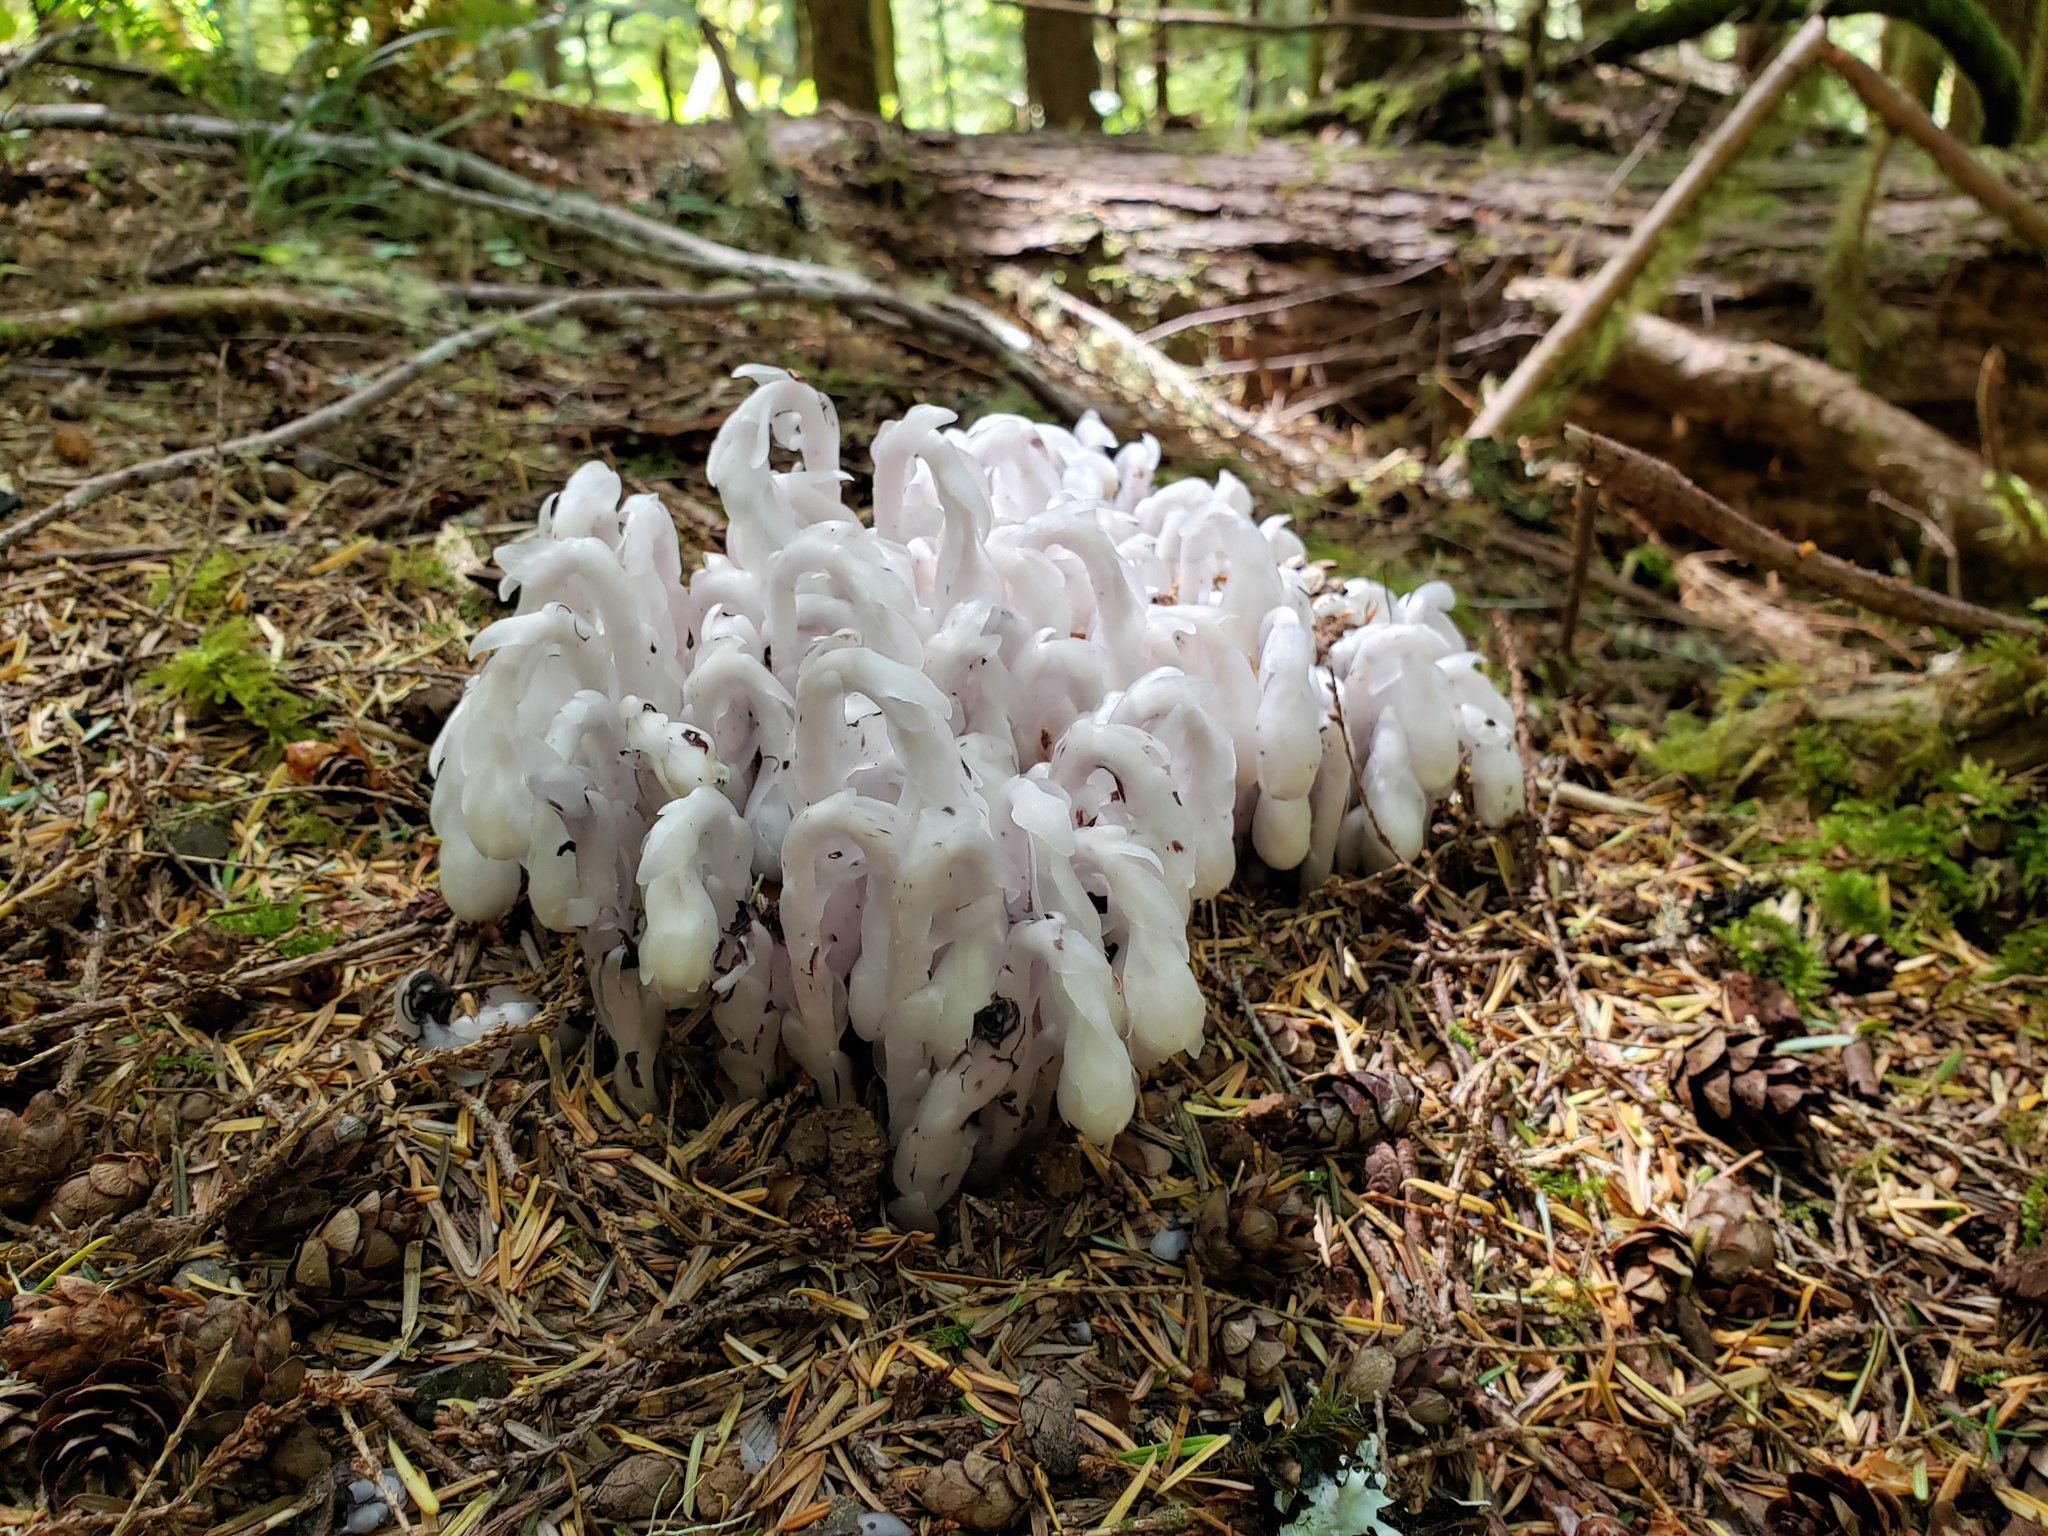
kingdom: Plantae
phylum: Tracheophyta
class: Magnoliopsida
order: Ericales
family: Ericaceae
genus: Monotropa
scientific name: Monotropa uniflora
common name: Convulsion root
